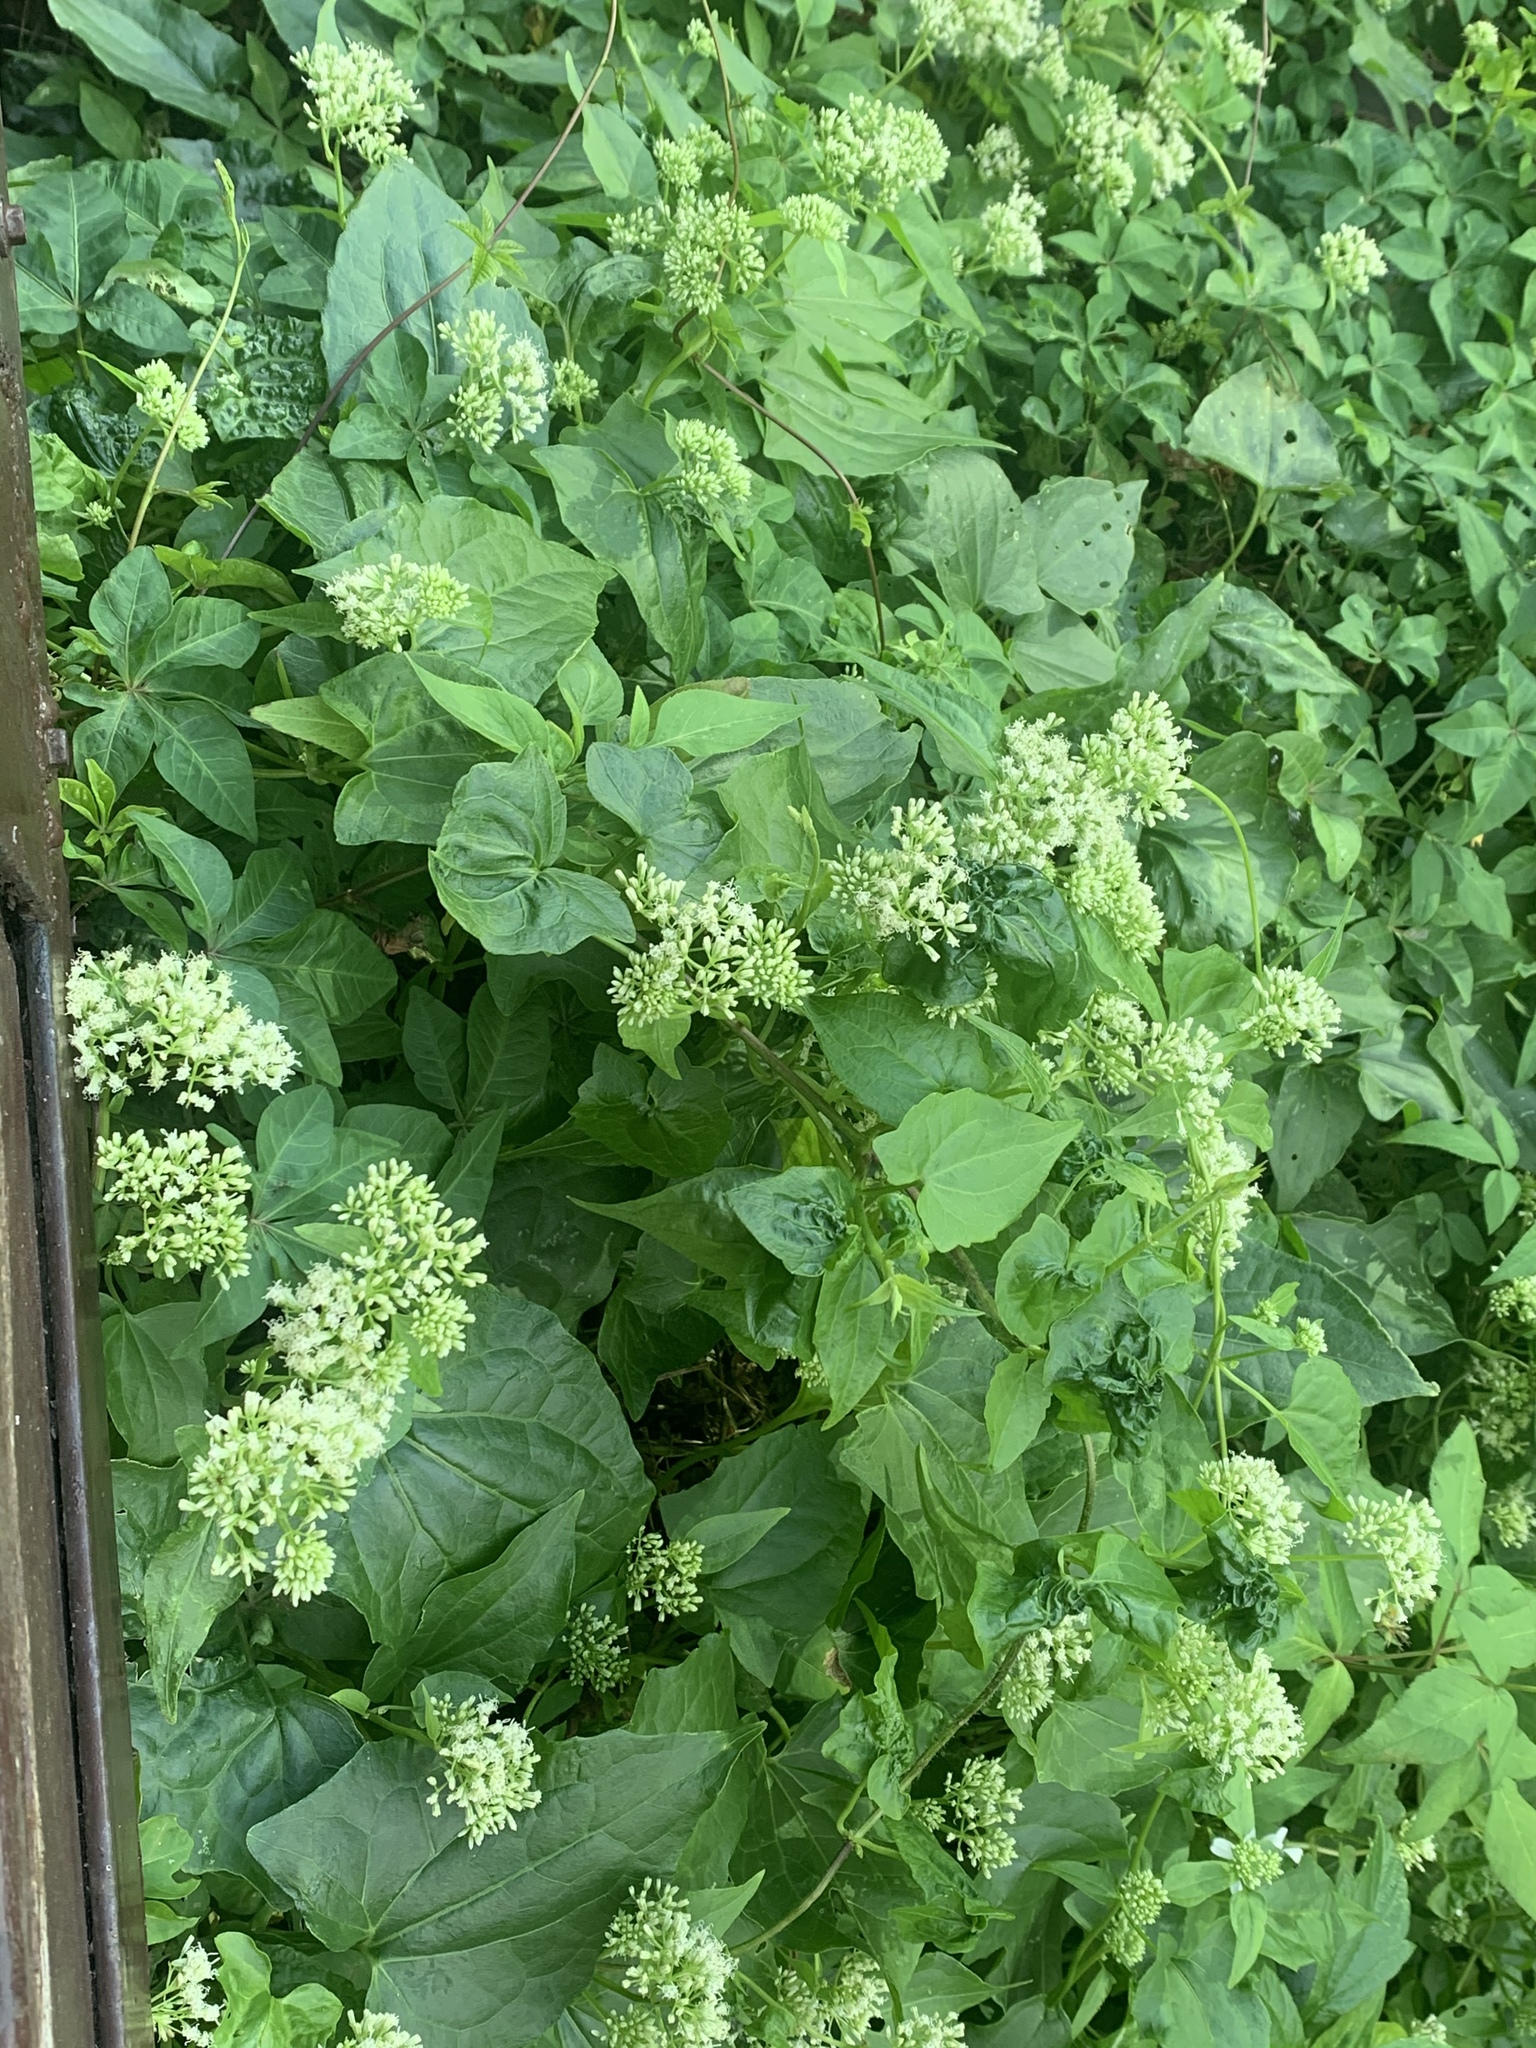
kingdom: Plantae
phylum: Tracheophyta
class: Magnoliopsida
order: Asterales
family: Asteraceae
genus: Mikania
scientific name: Mikania micrantha
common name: Mile-a-minute
